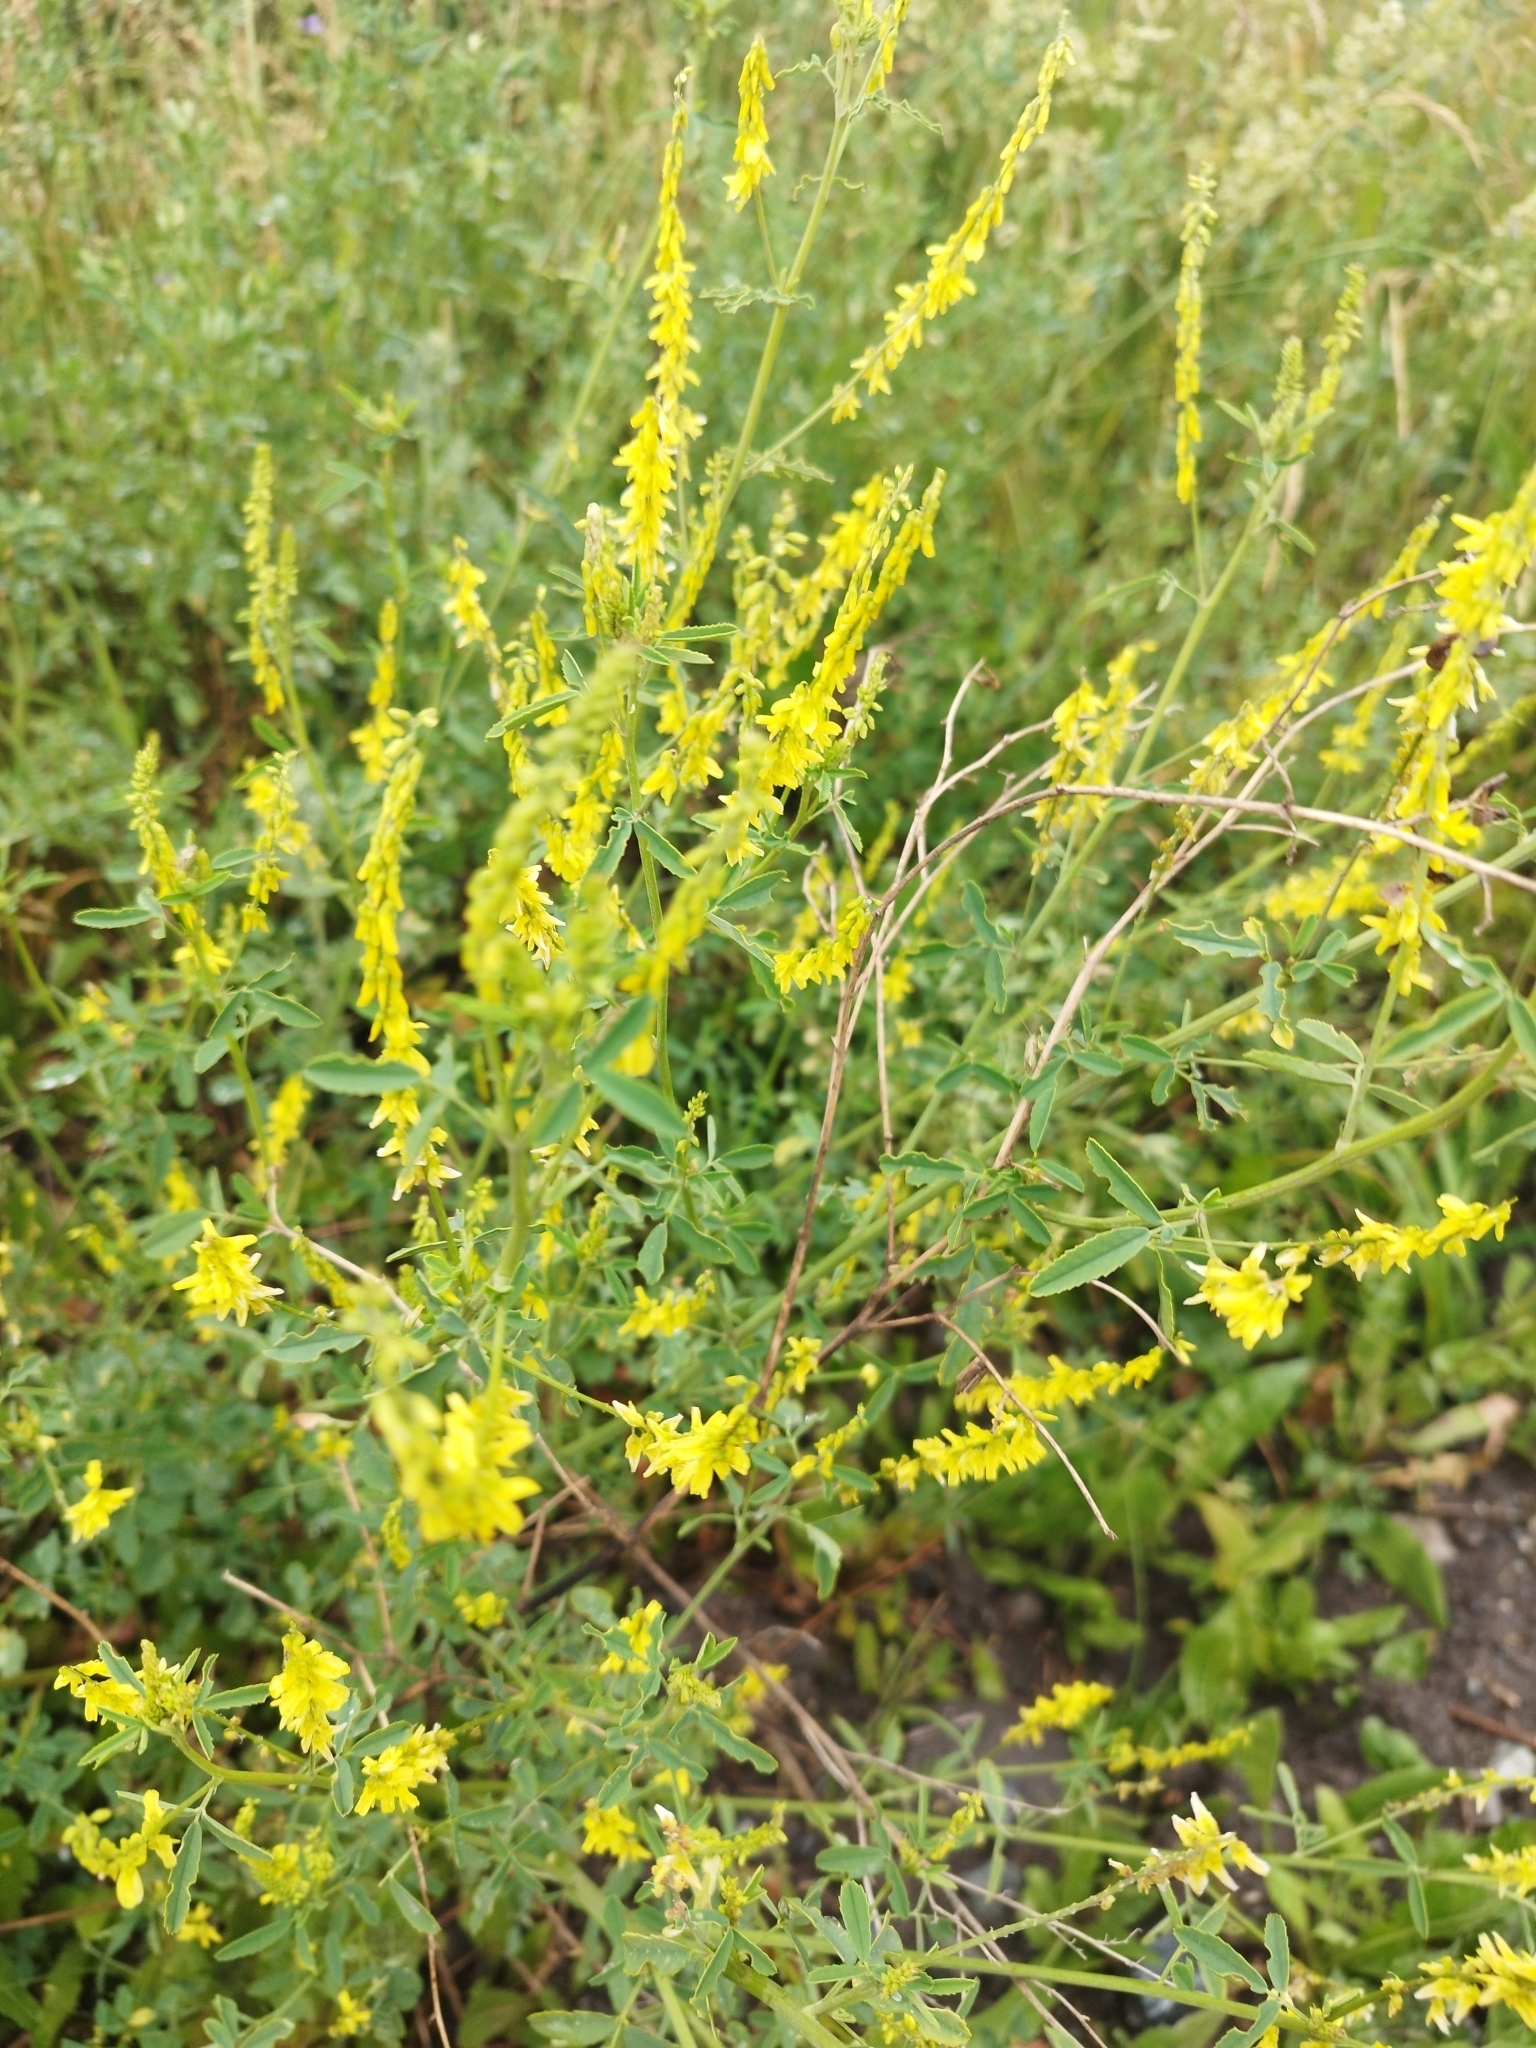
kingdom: Plantae
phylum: Tracheophyta
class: Magnoliopsida
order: Fabales
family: Fabaceae
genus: Melilotus
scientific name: Melilotus officinalis
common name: Sweetclover
